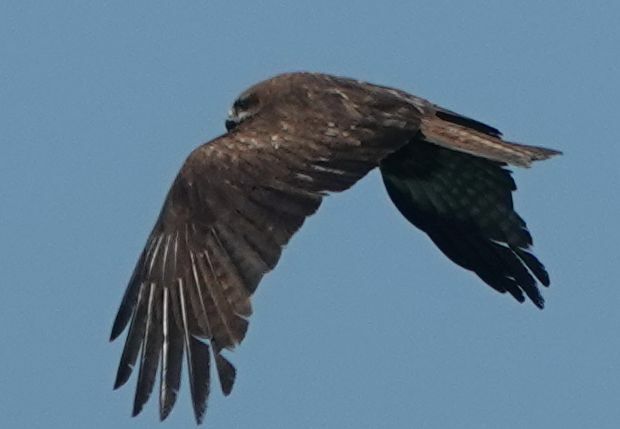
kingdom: Animalia
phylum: Chordata
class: Aves
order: Accipitriformes
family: Accipitridae
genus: Milvus
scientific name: Milvus migrans
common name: Black kite
